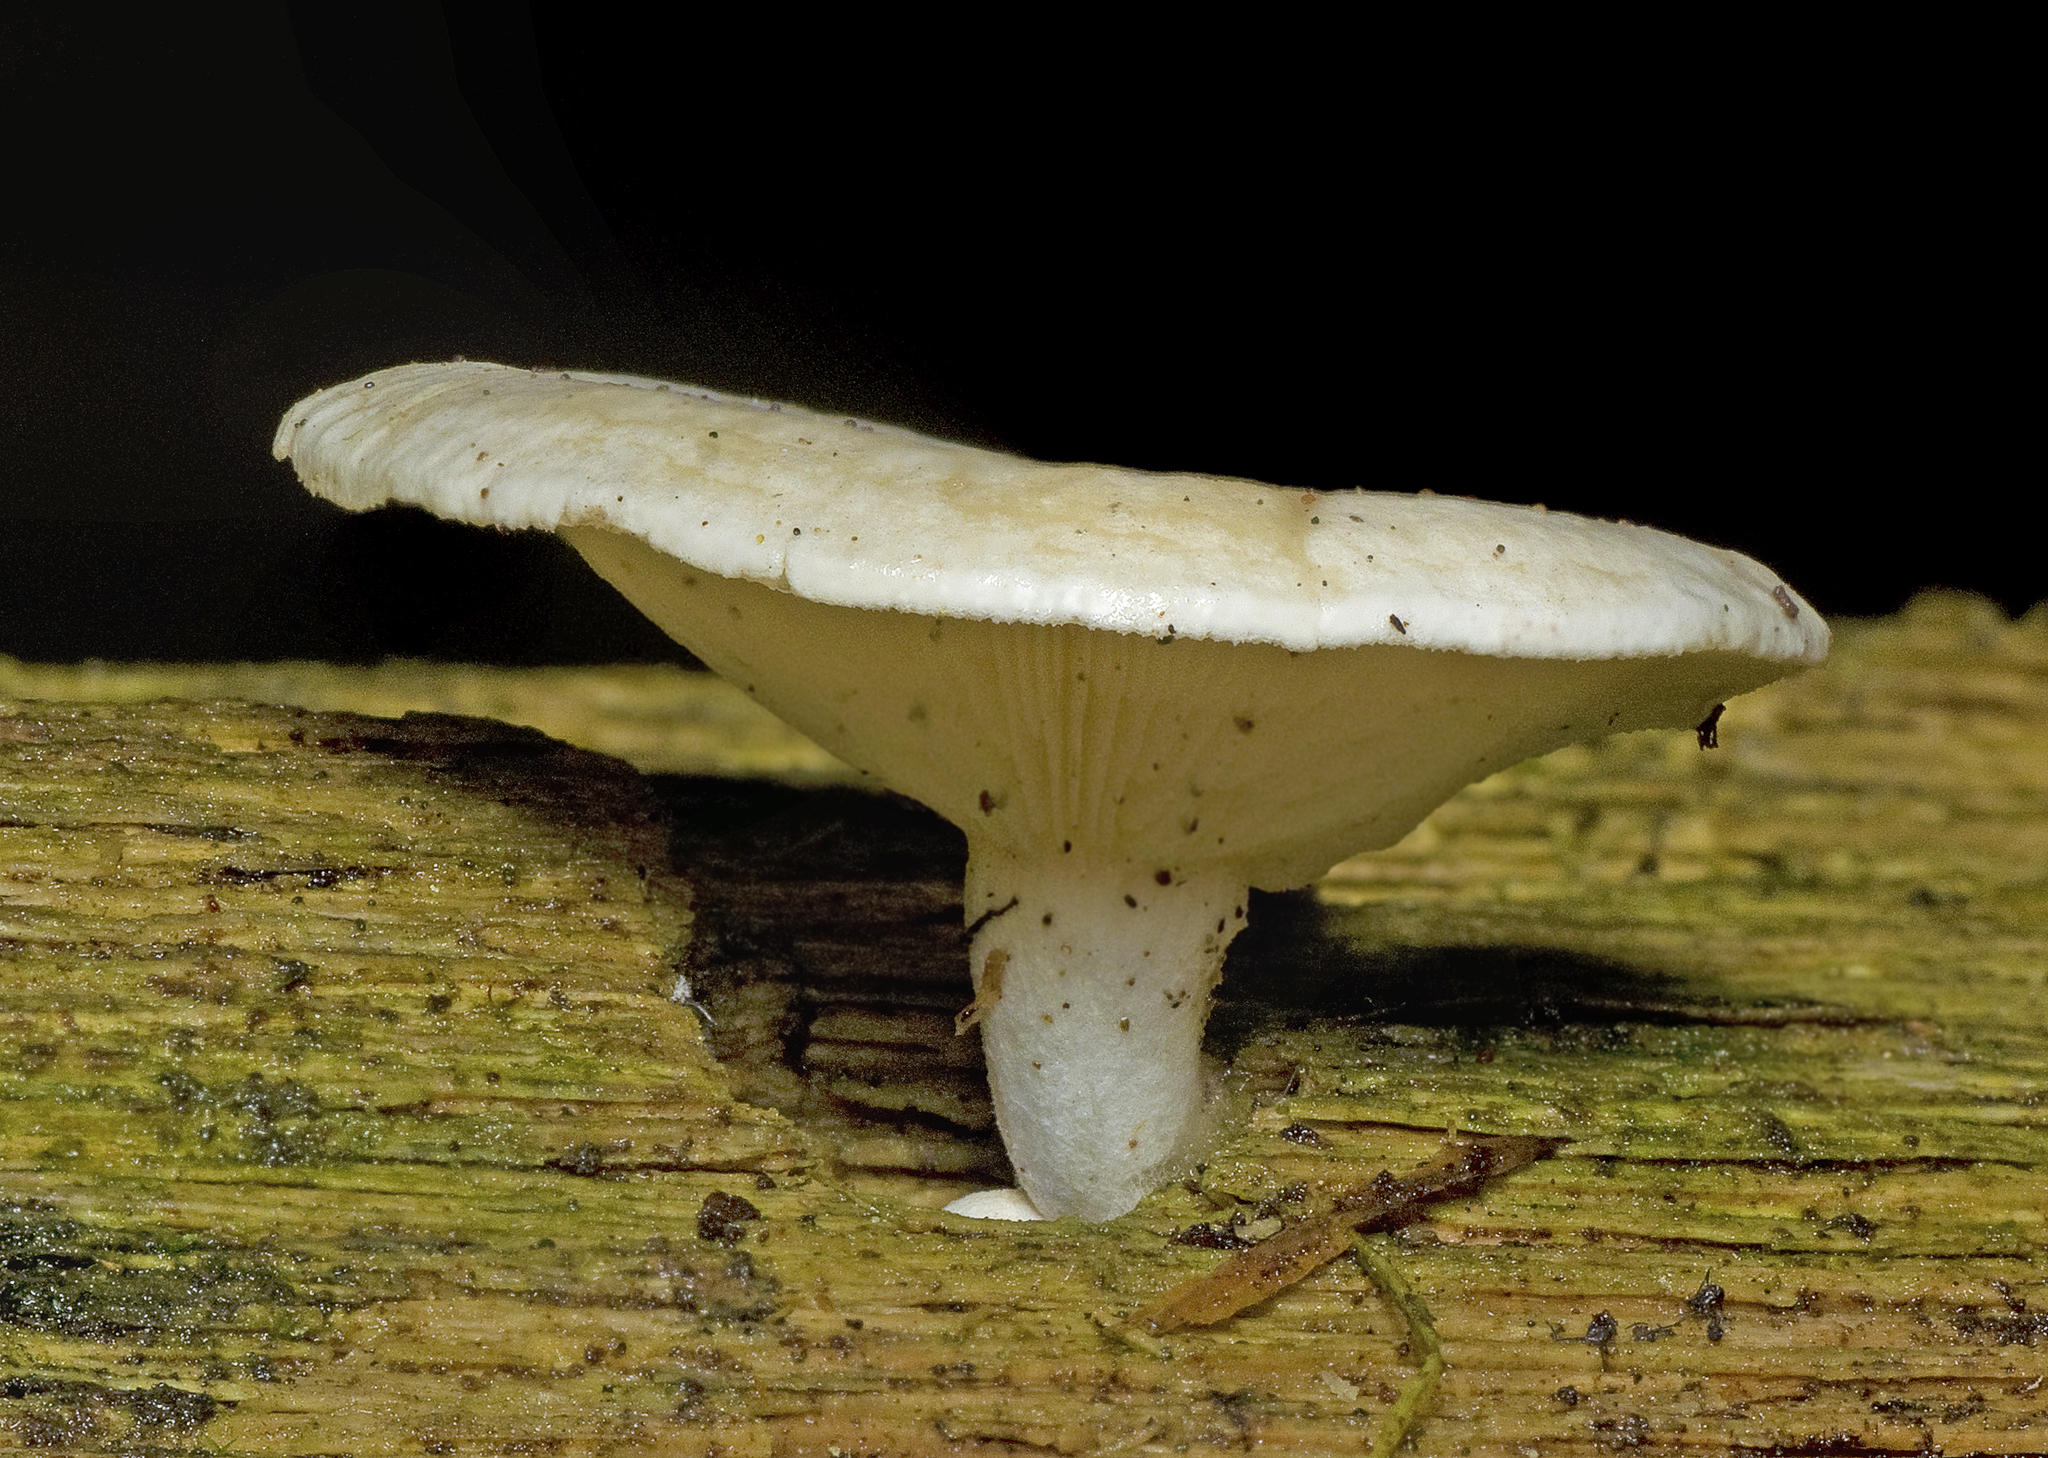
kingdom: Fungi
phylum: Basidiomycota
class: Agaricomycetes
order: Polyporales
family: Polyporaceae
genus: Lentinus
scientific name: Lentinus sajor-caju
